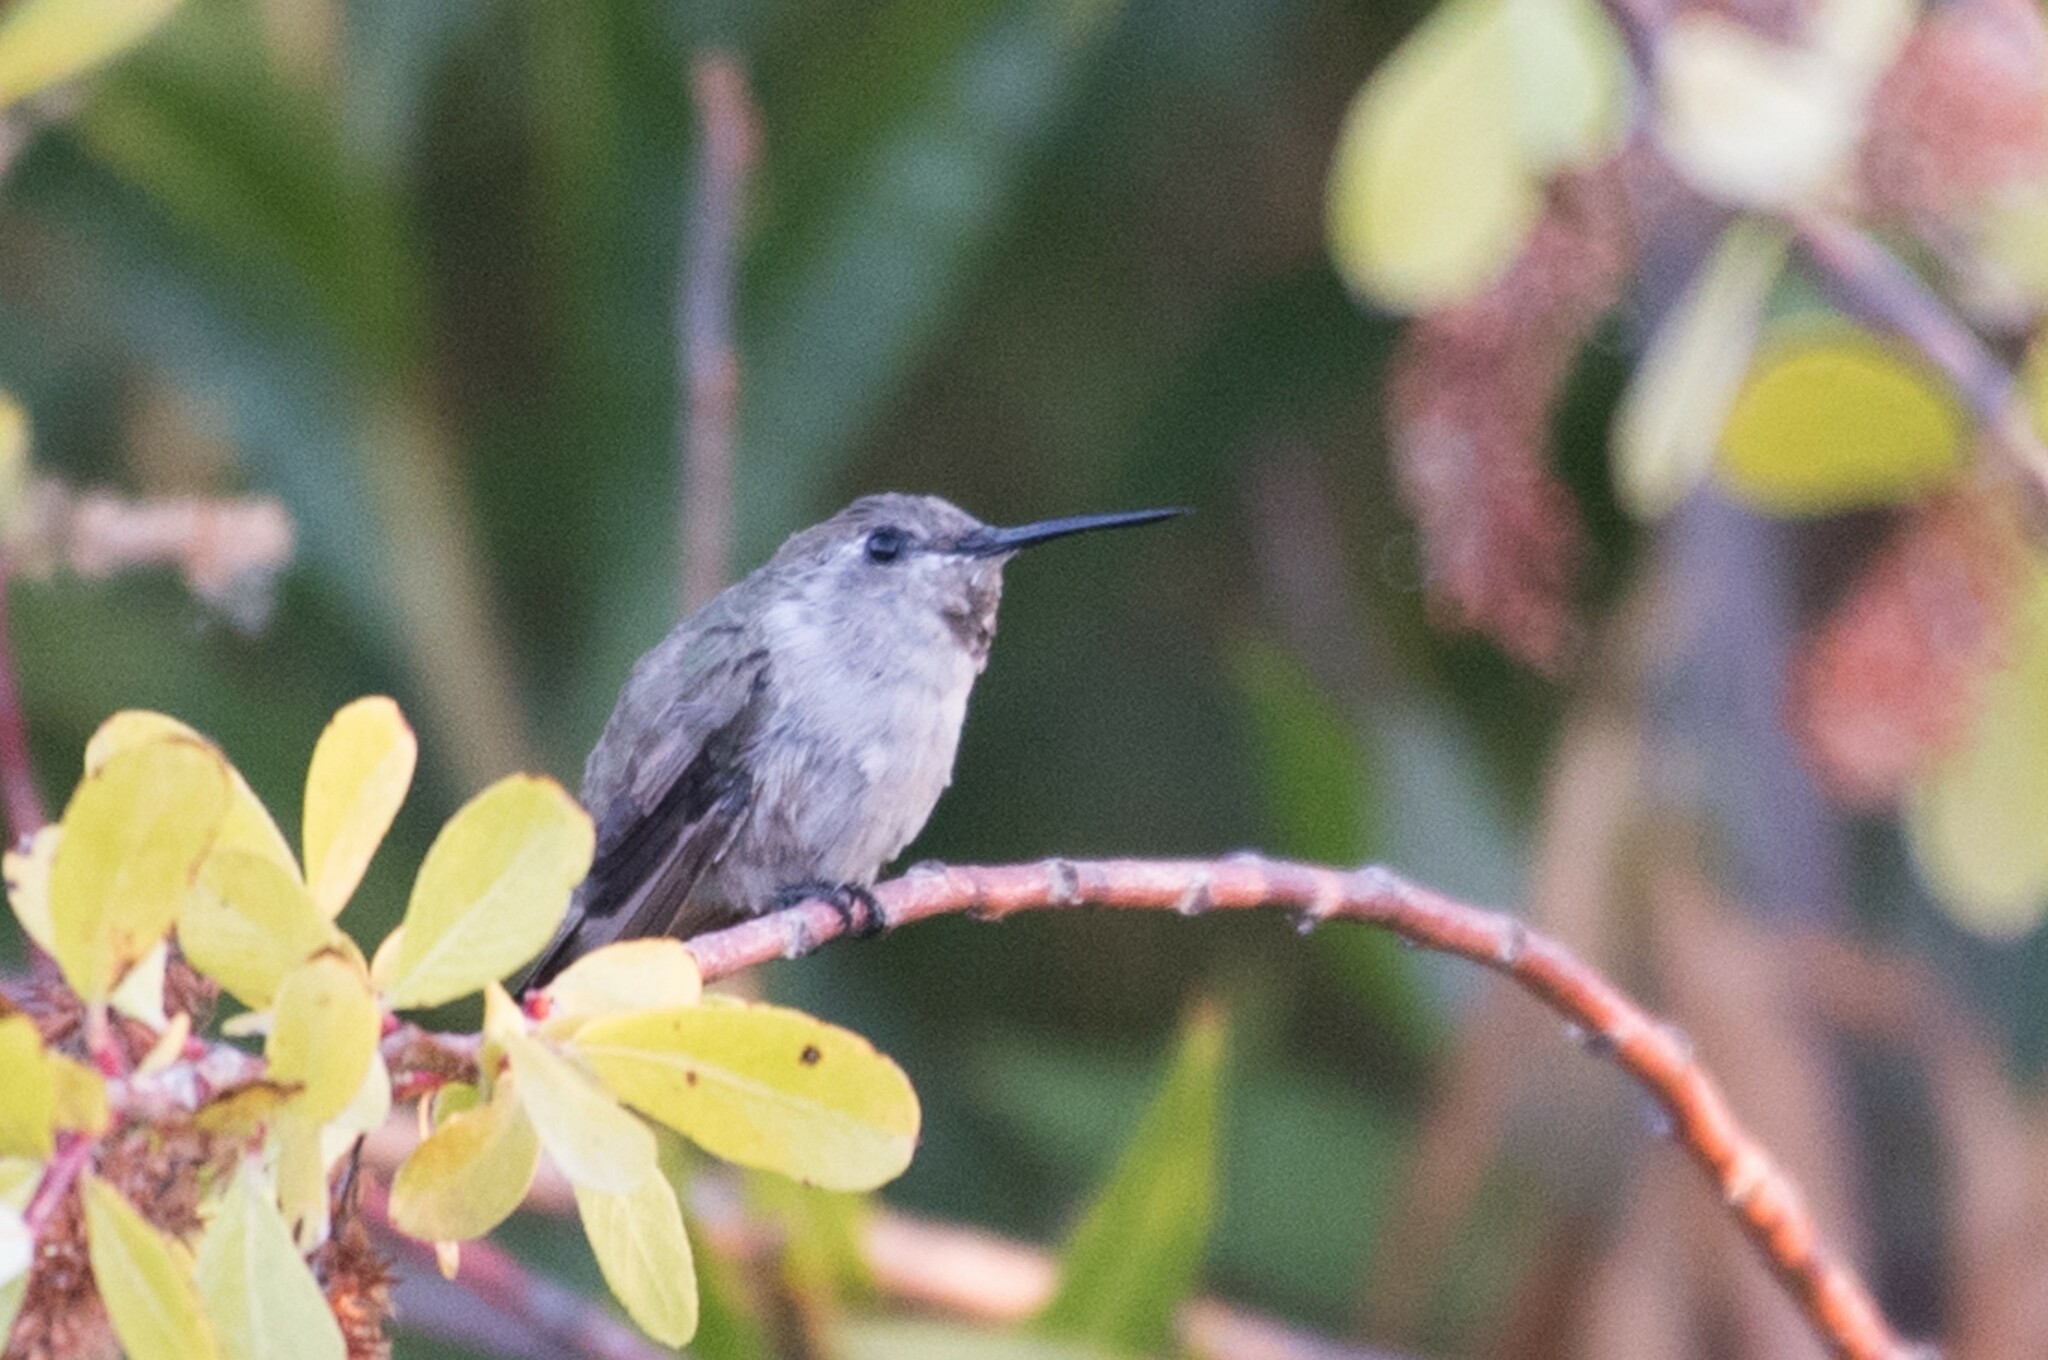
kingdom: Animalia
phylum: Chordata
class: Aves
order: Apodiformes
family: Trochilidae
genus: Calypte
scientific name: Calypte costae
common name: Costa's hummingbird
